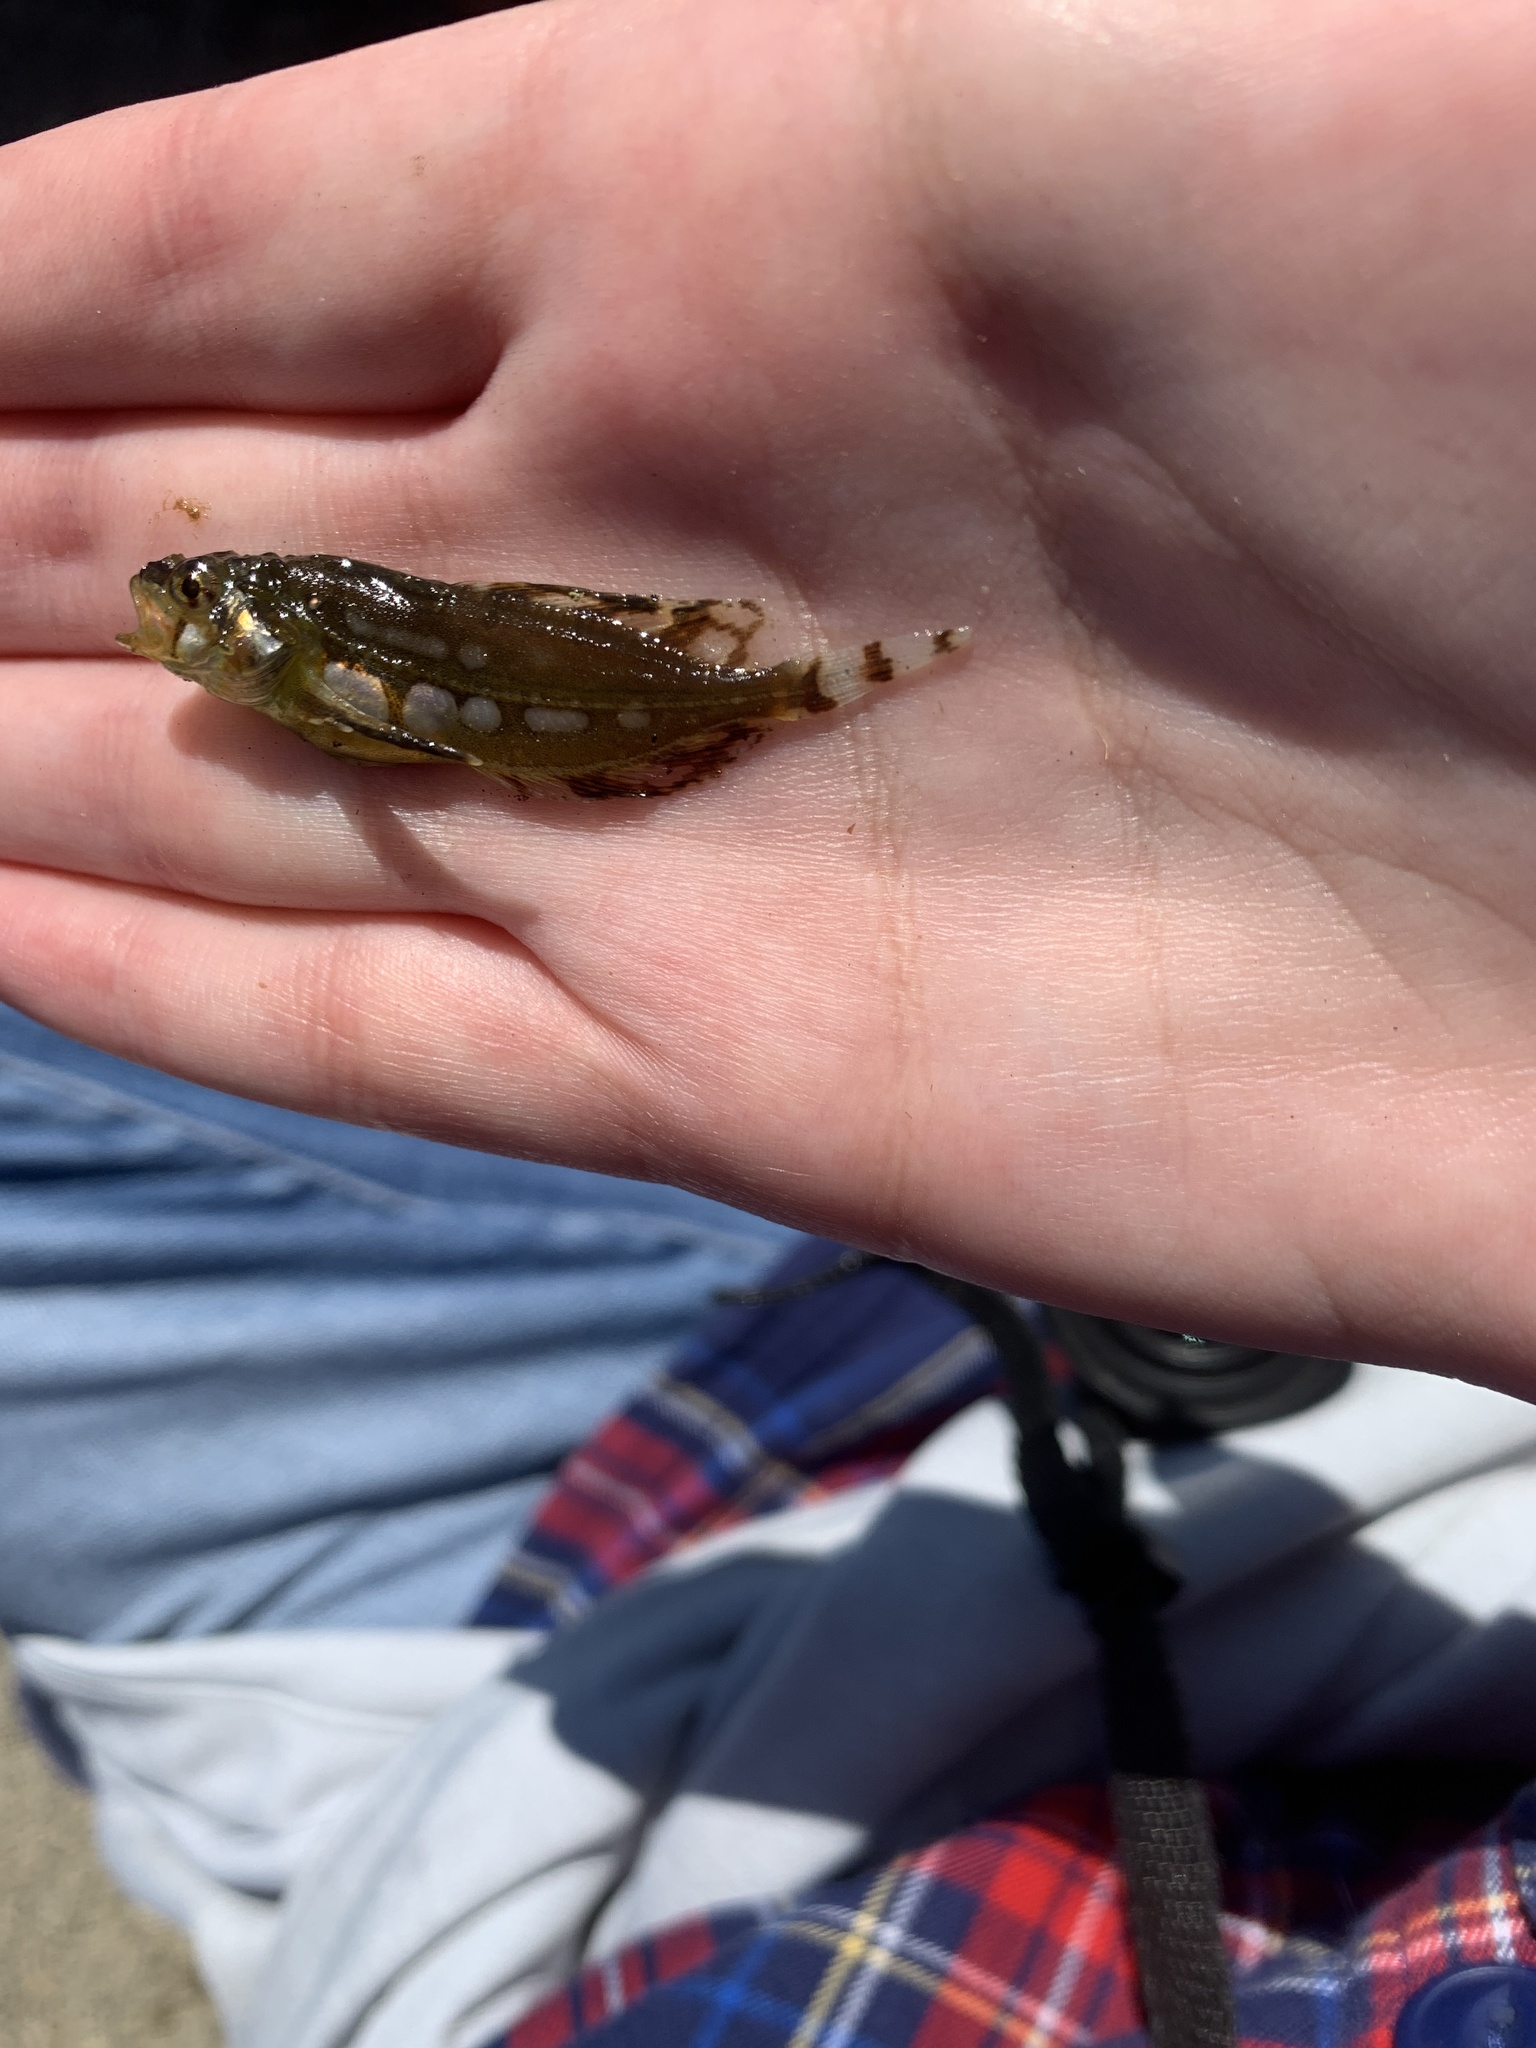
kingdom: Animalia
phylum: Chordata
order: Scorpaeniformes
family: Hemitripteridae
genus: Blepsias
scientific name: Blepsias cirrhosus
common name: Silverspotted sculpin
